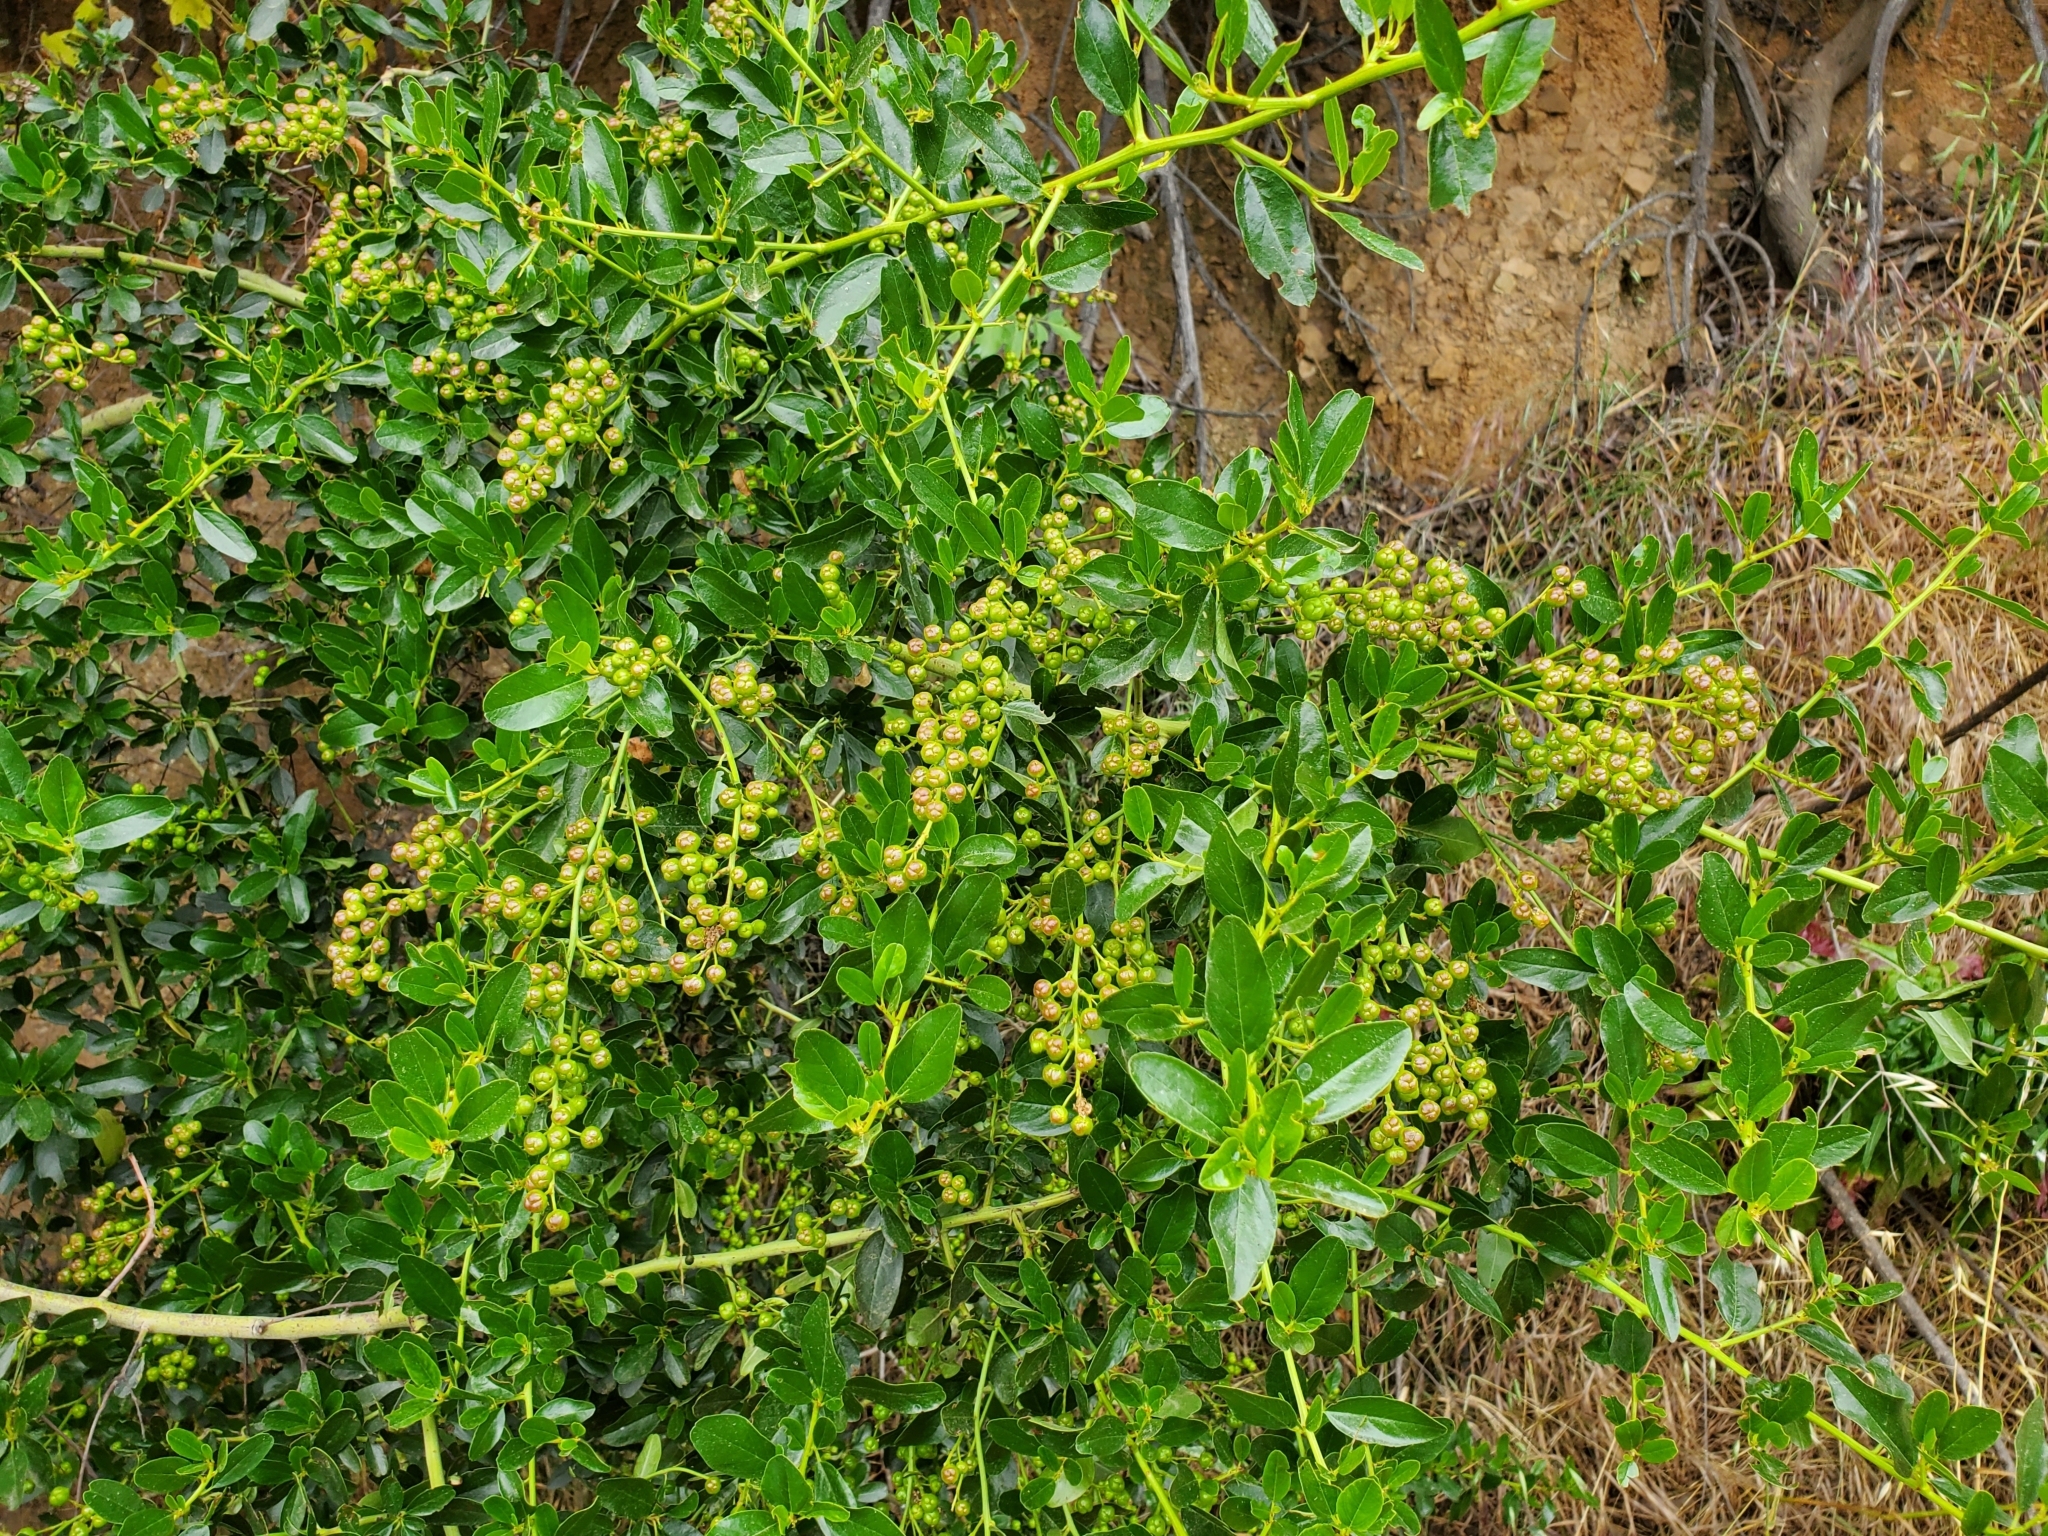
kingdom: Plantae
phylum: Tracheophyta
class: Magnoliopsida
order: Rosales
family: Rhamnaceae
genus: Ceanothus
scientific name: Ceanothus spinosus
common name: Greenbark whitethorn
